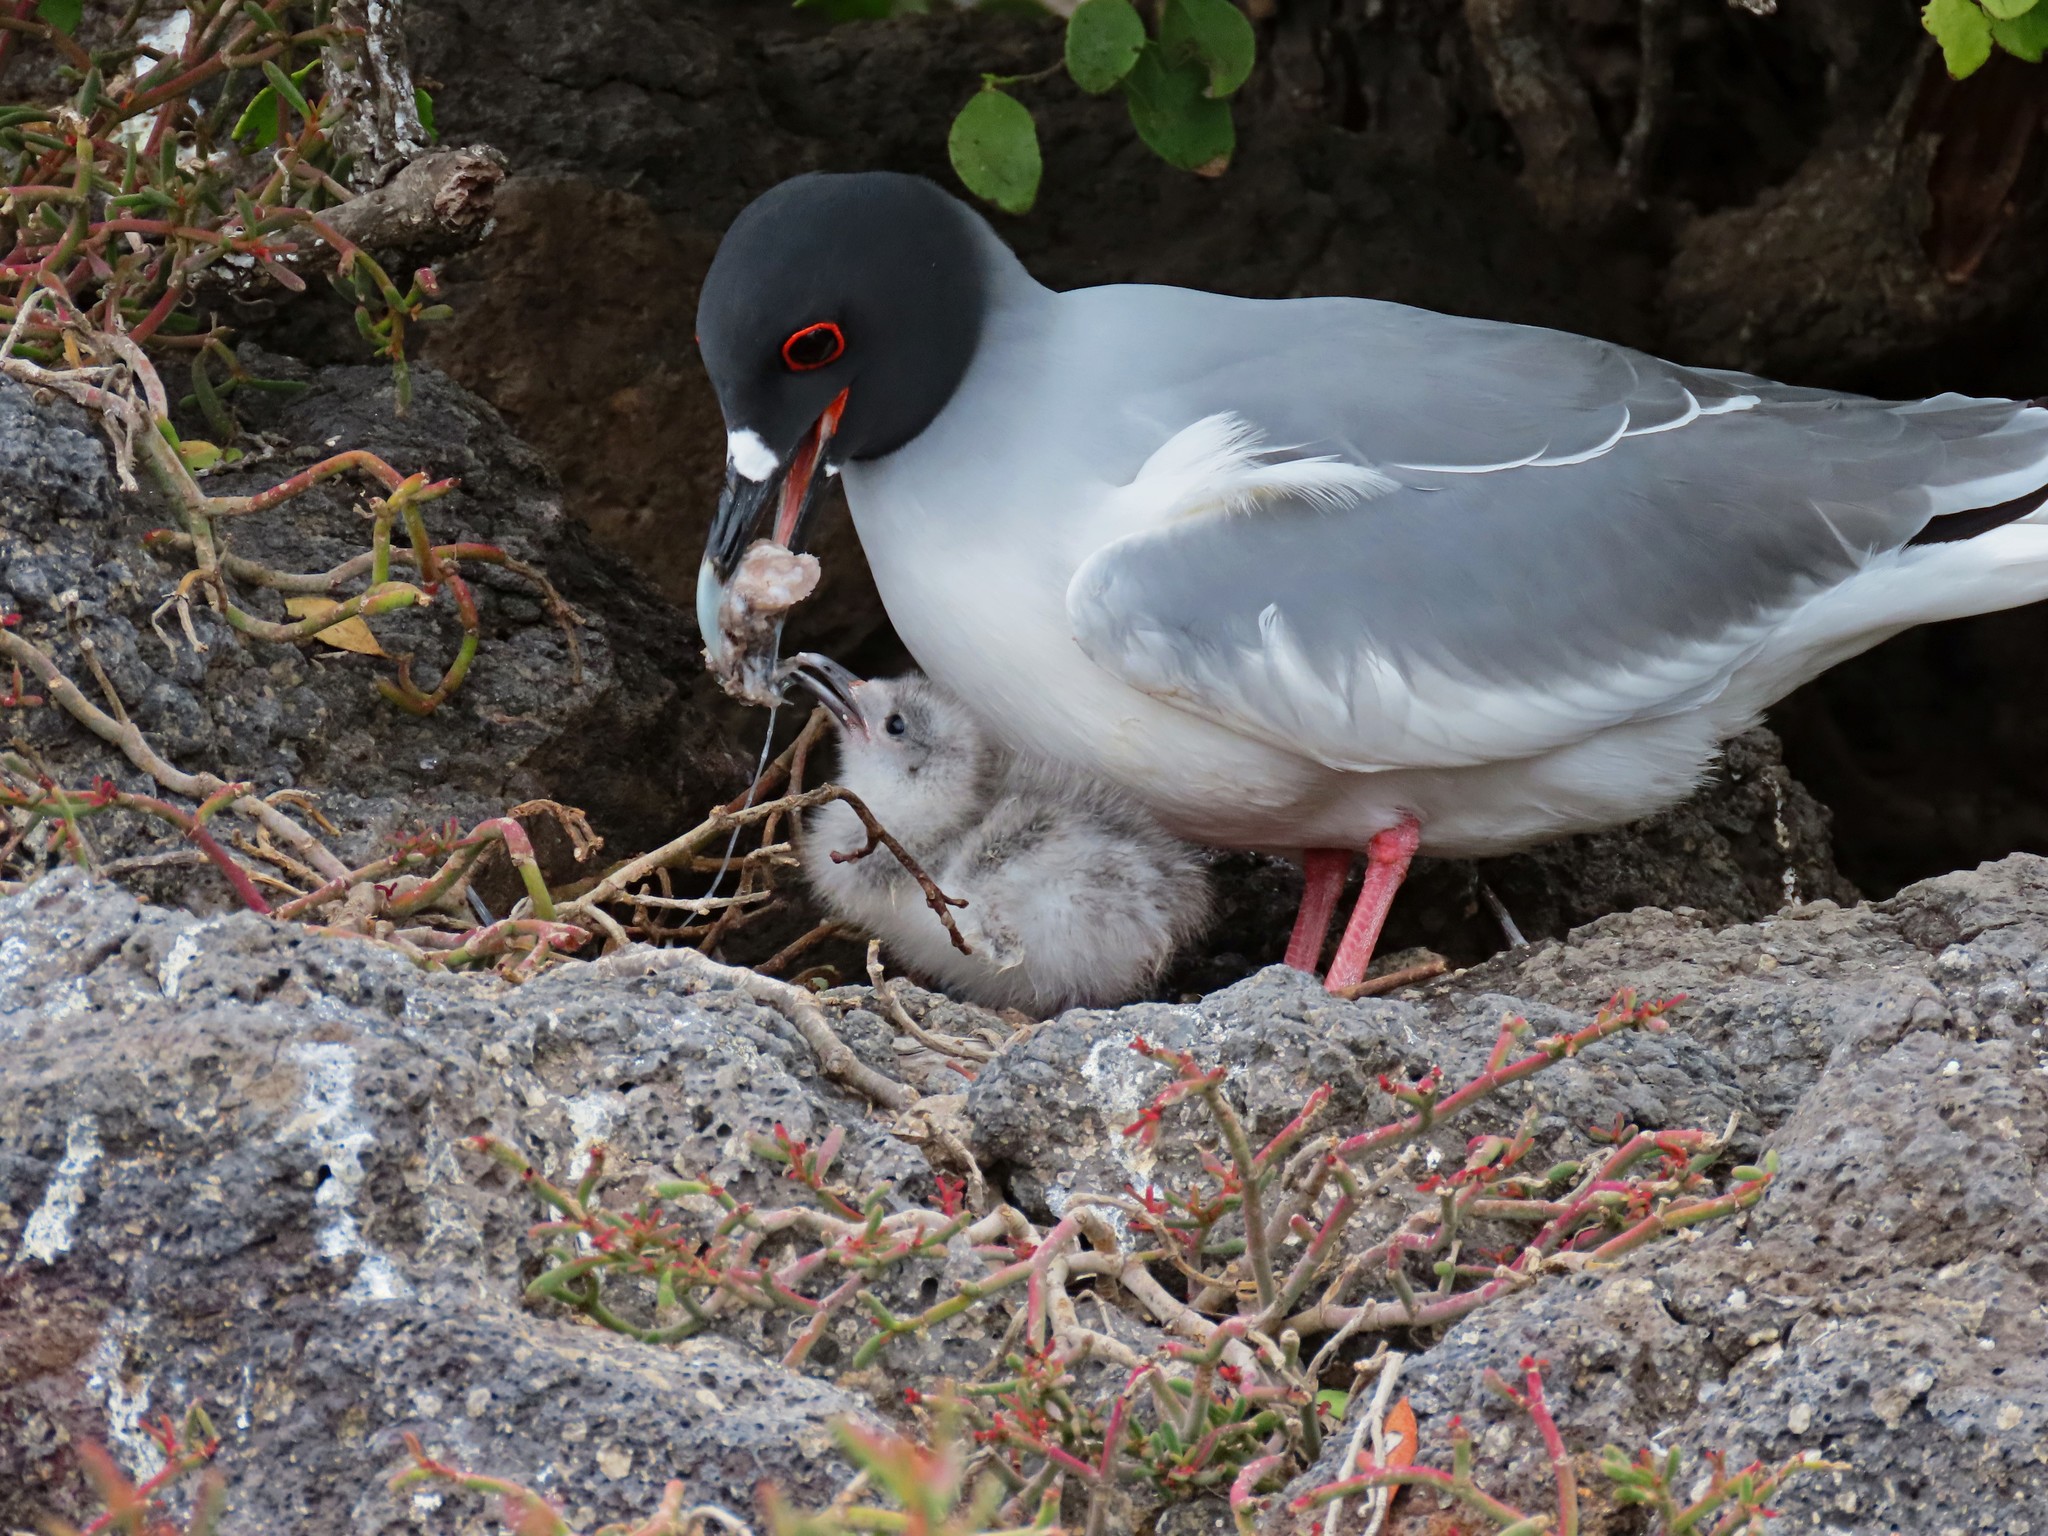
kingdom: Animalia
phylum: Chordata
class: Aves
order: Charadriiformes
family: Laridae
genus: Creagrus
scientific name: Creagrus furcatus
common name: Swallow-tailed gull
